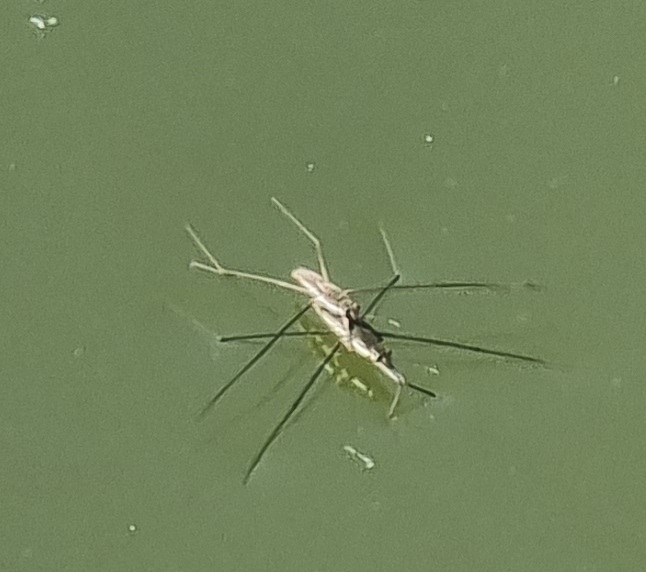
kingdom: Animalia
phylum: Arthropoda
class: Insecta
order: Hemiptera
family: Gerridae
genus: Aquarius
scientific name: Aquarius paludum
